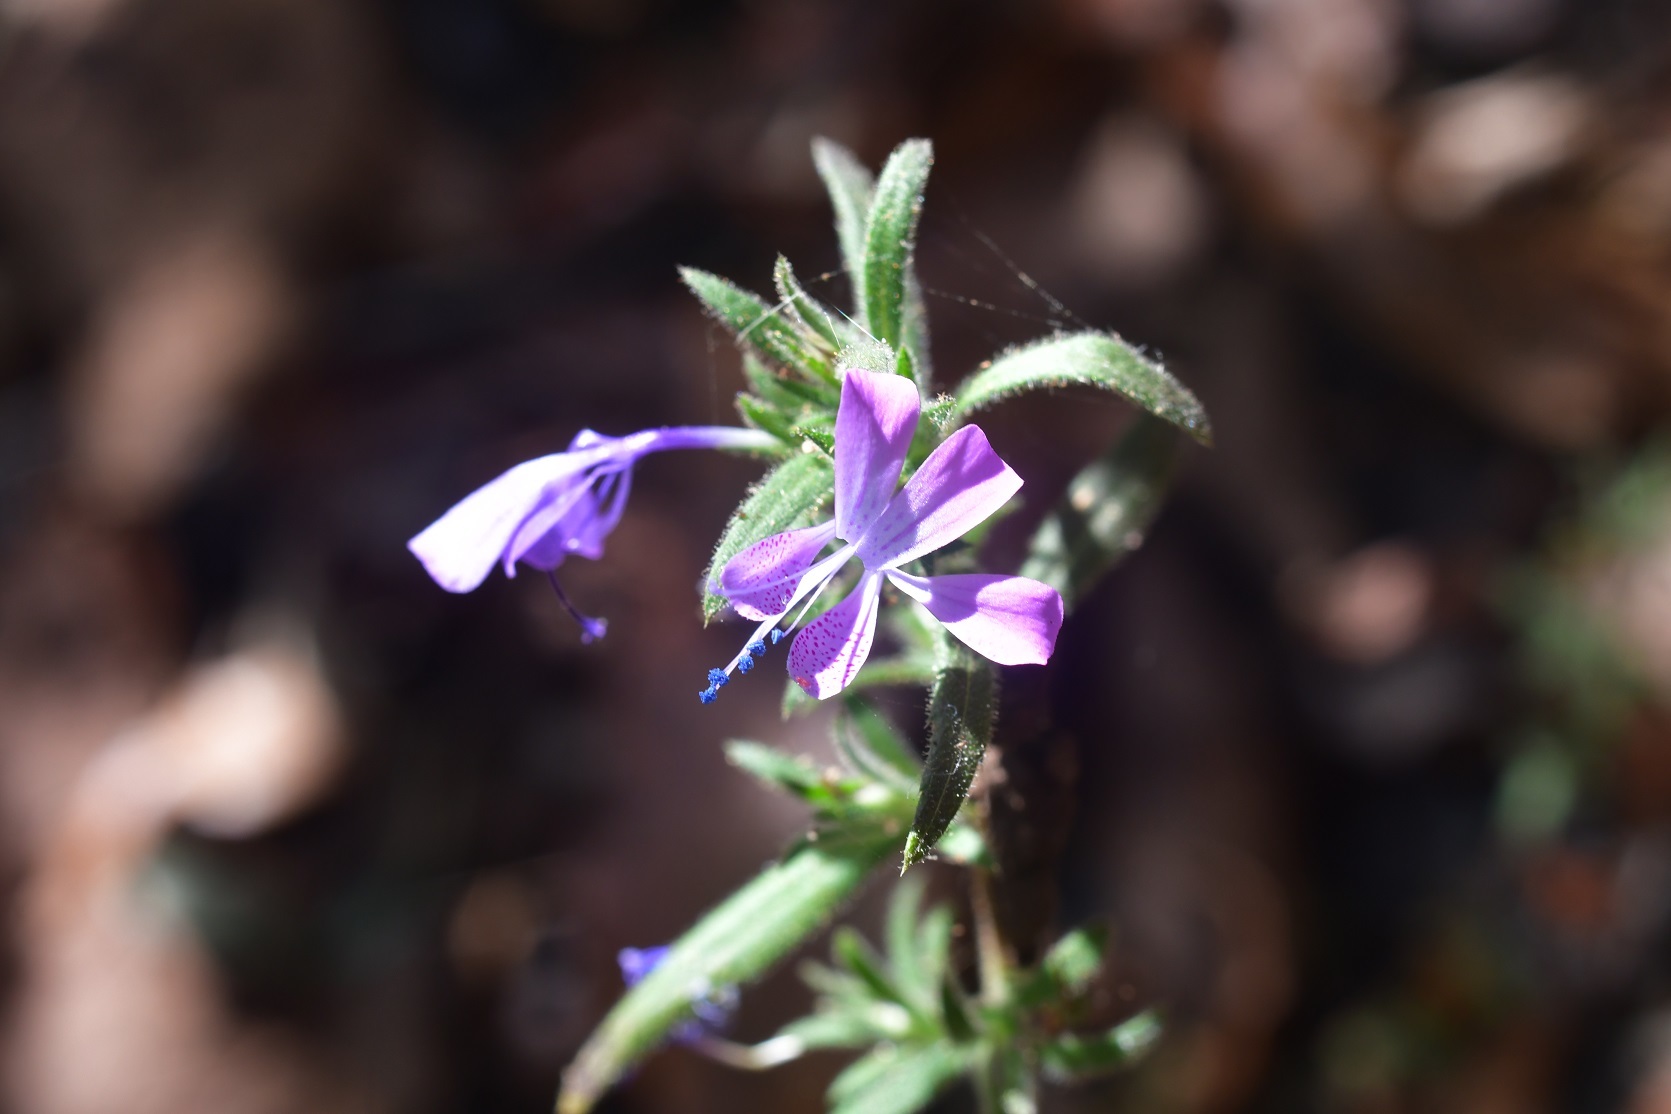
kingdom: Plantae
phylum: Tracheophyta
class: Magnoliopsida
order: Ericales
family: Polemoniaceae
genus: Loeselia
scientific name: Loeselia glandulosa
